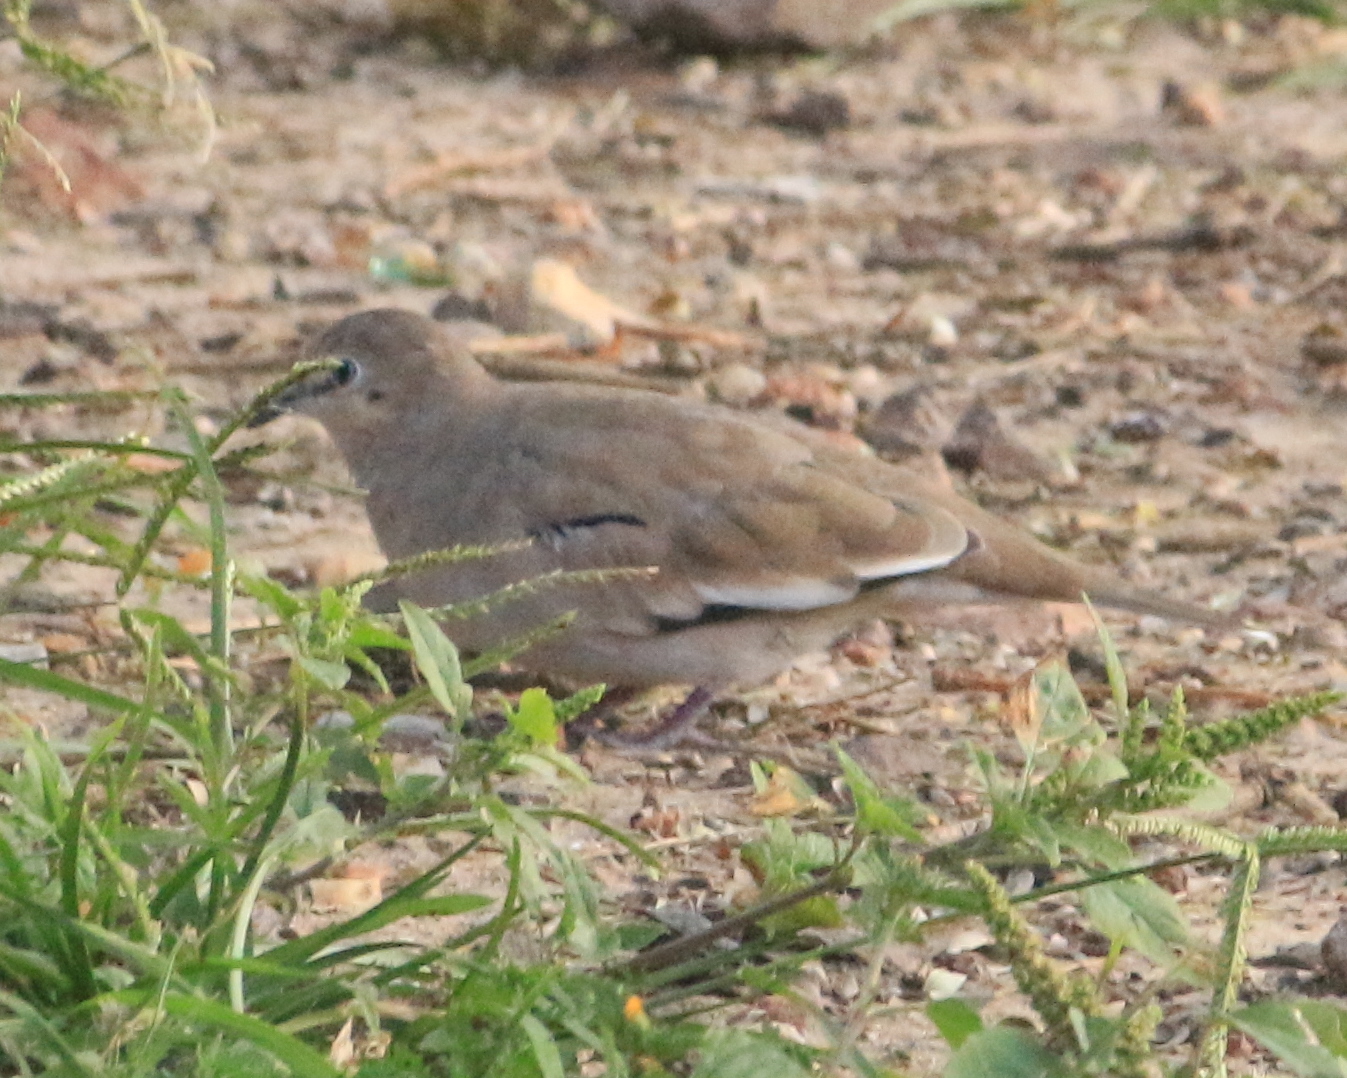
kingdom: Animalia
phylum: Chordata
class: Aves
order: Columbiformes
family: Columbidae
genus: Columbina
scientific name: Columbina picui
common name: Picui ground dove
